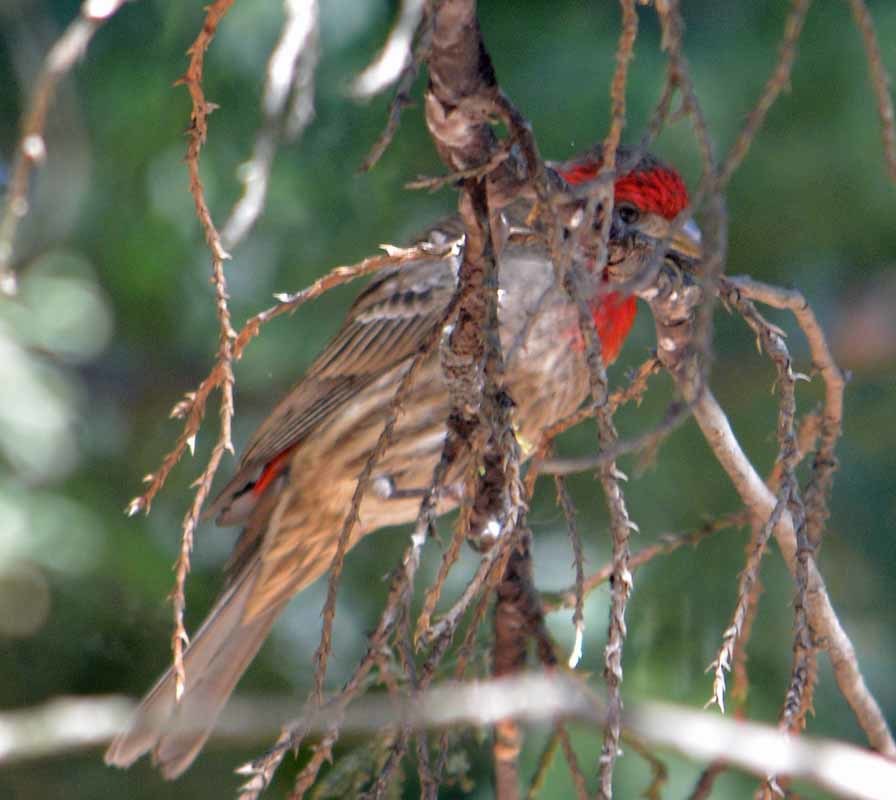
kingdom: Animalia
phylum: Chordata
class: Aves
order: Passeriformes
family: Fringillidae
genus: Haemorhous
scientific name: Haemorhous mexicanus
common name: House finch
